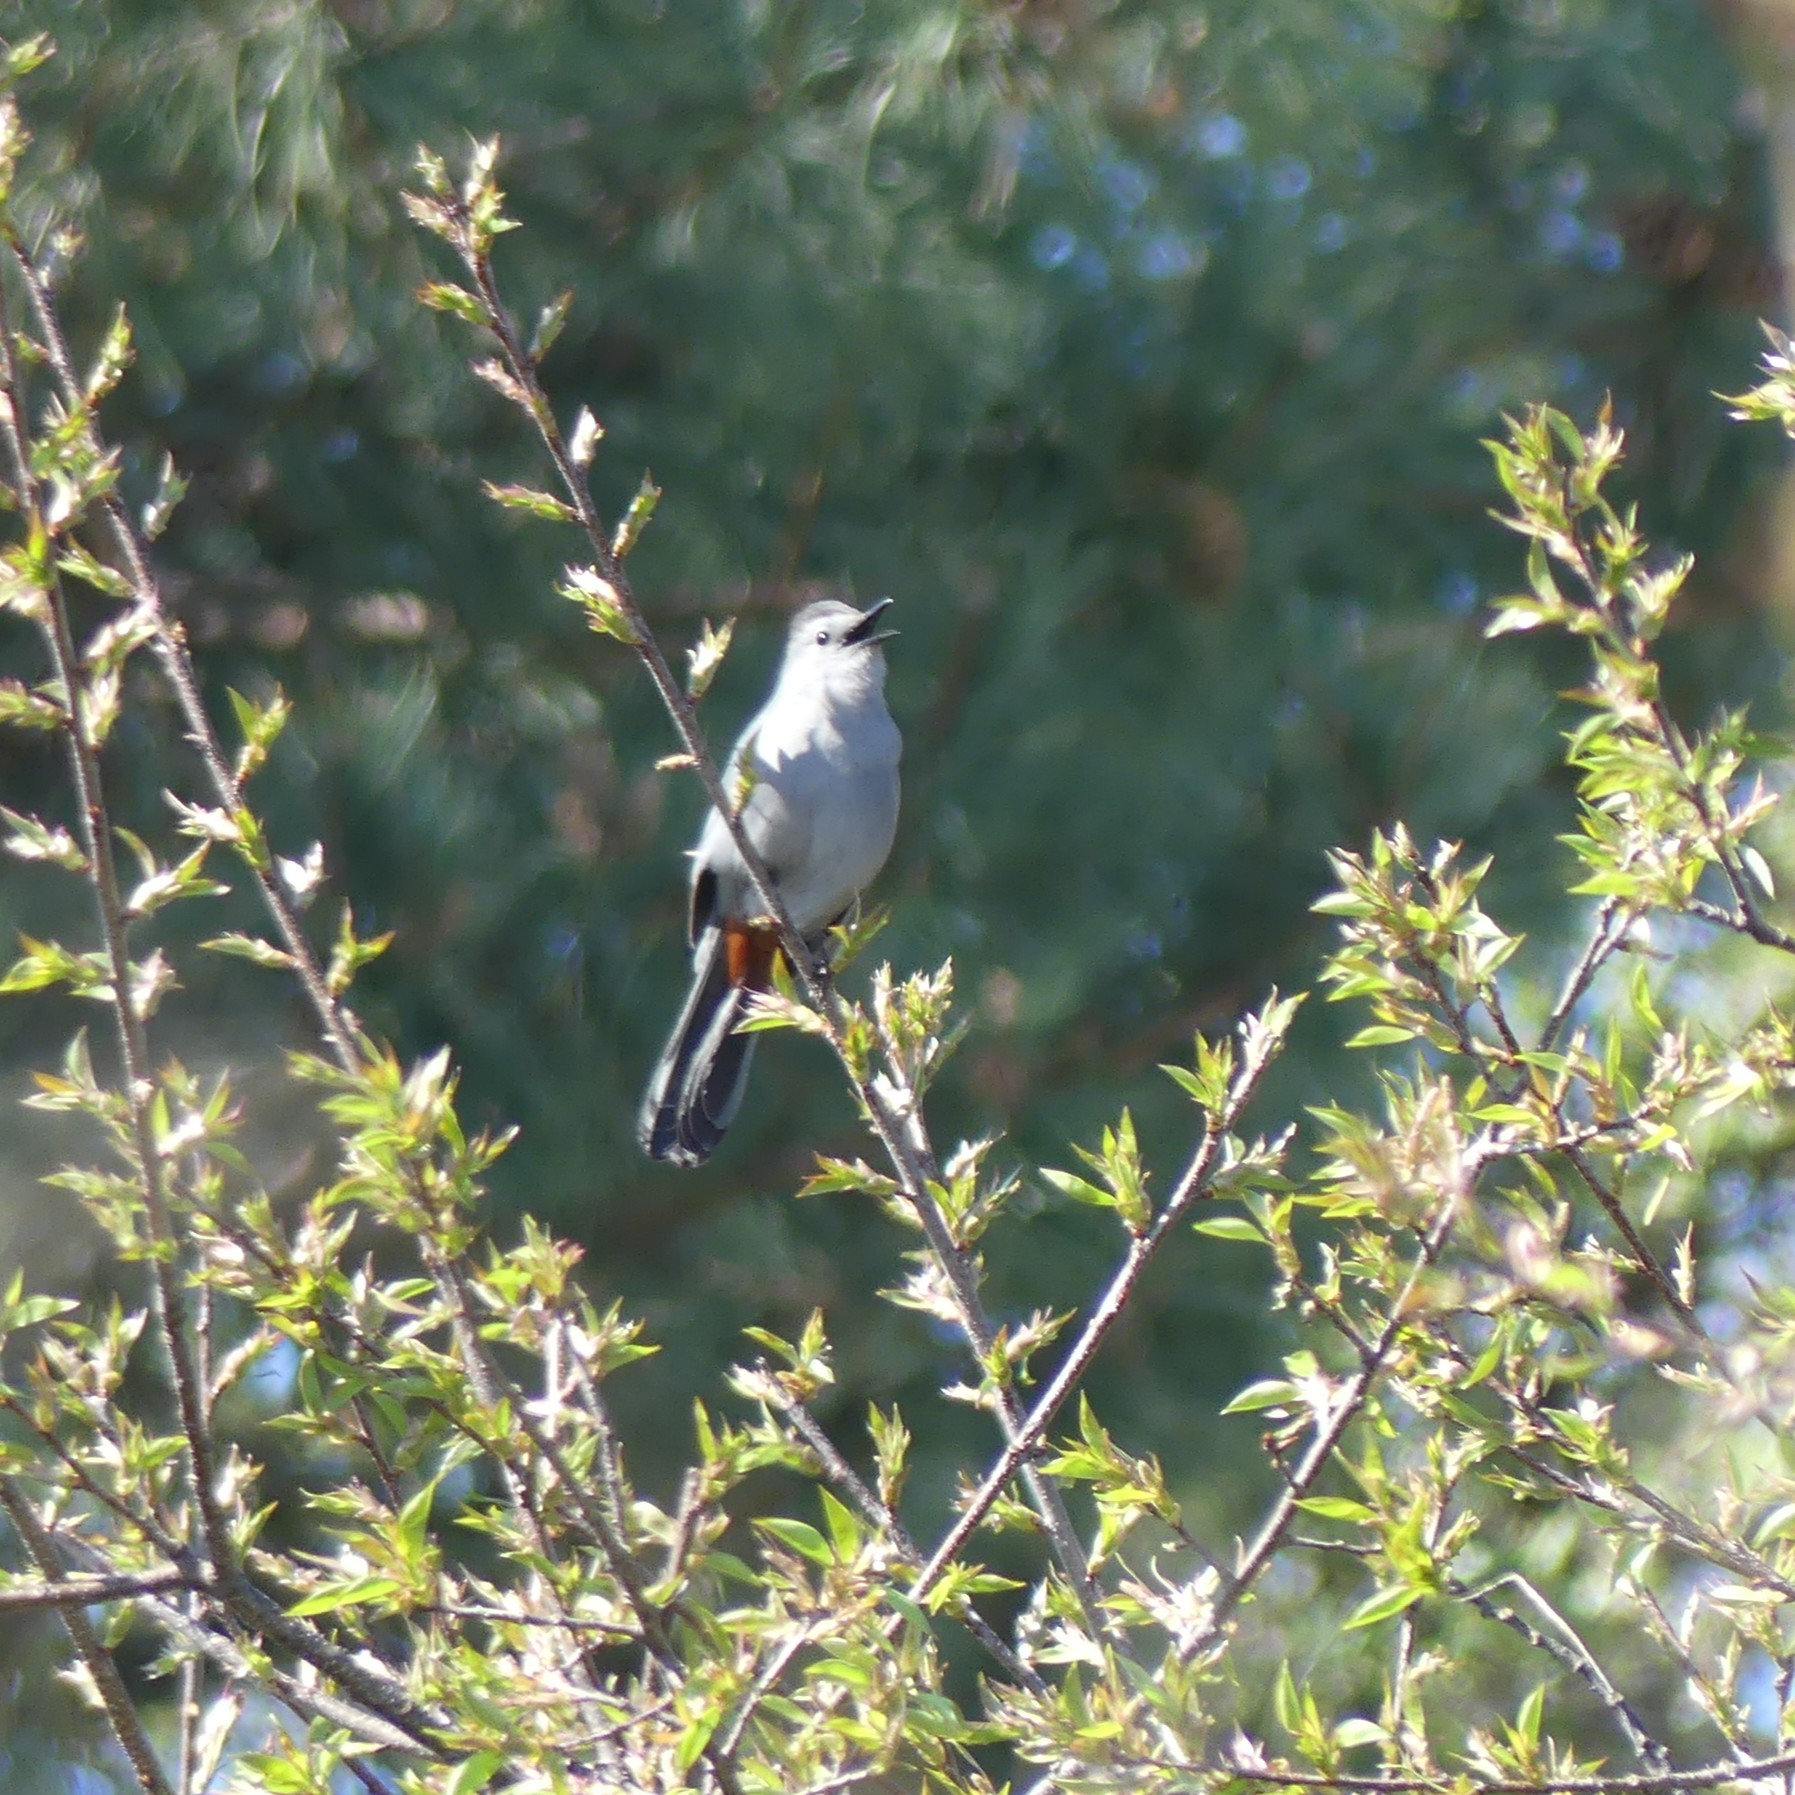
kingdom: Animalia
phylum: Chordata
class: Aves
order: Passeriformes
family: Mimidae
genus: Dumetella
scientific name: Dumetella carolinensis
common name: Gray catbird
